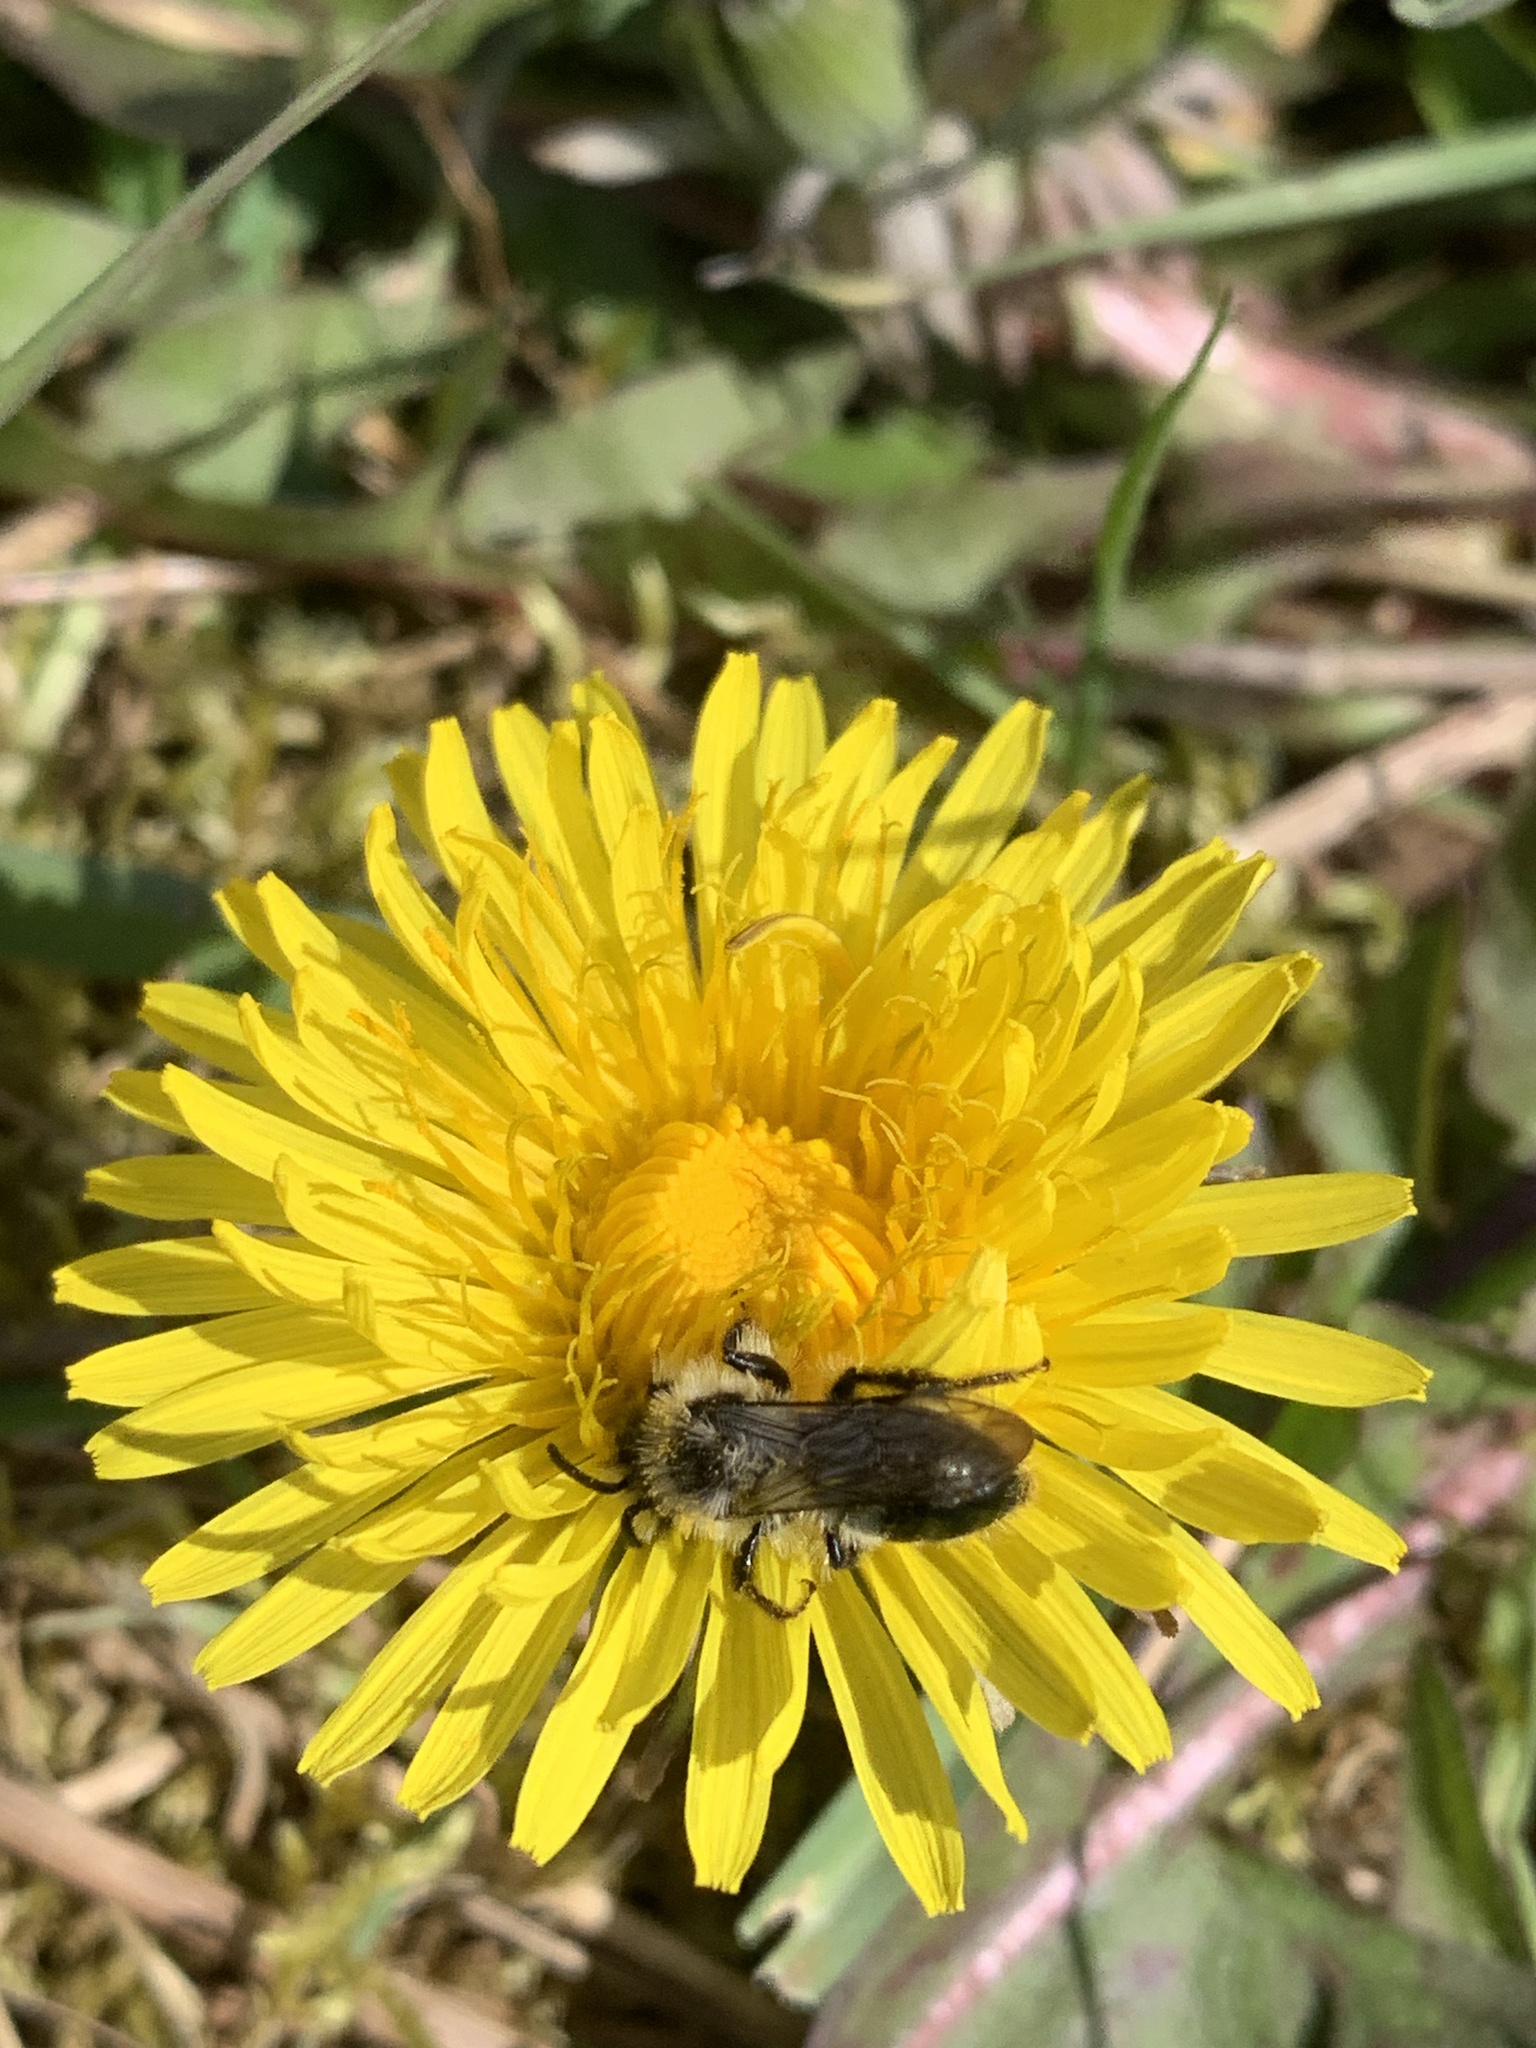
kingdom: Animalia
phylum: Arthropoda
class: Insecta
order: Hymenoptera
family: Andrenidae
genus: Andrena
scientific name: Andrena cineraria
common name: Ashy mining bee
